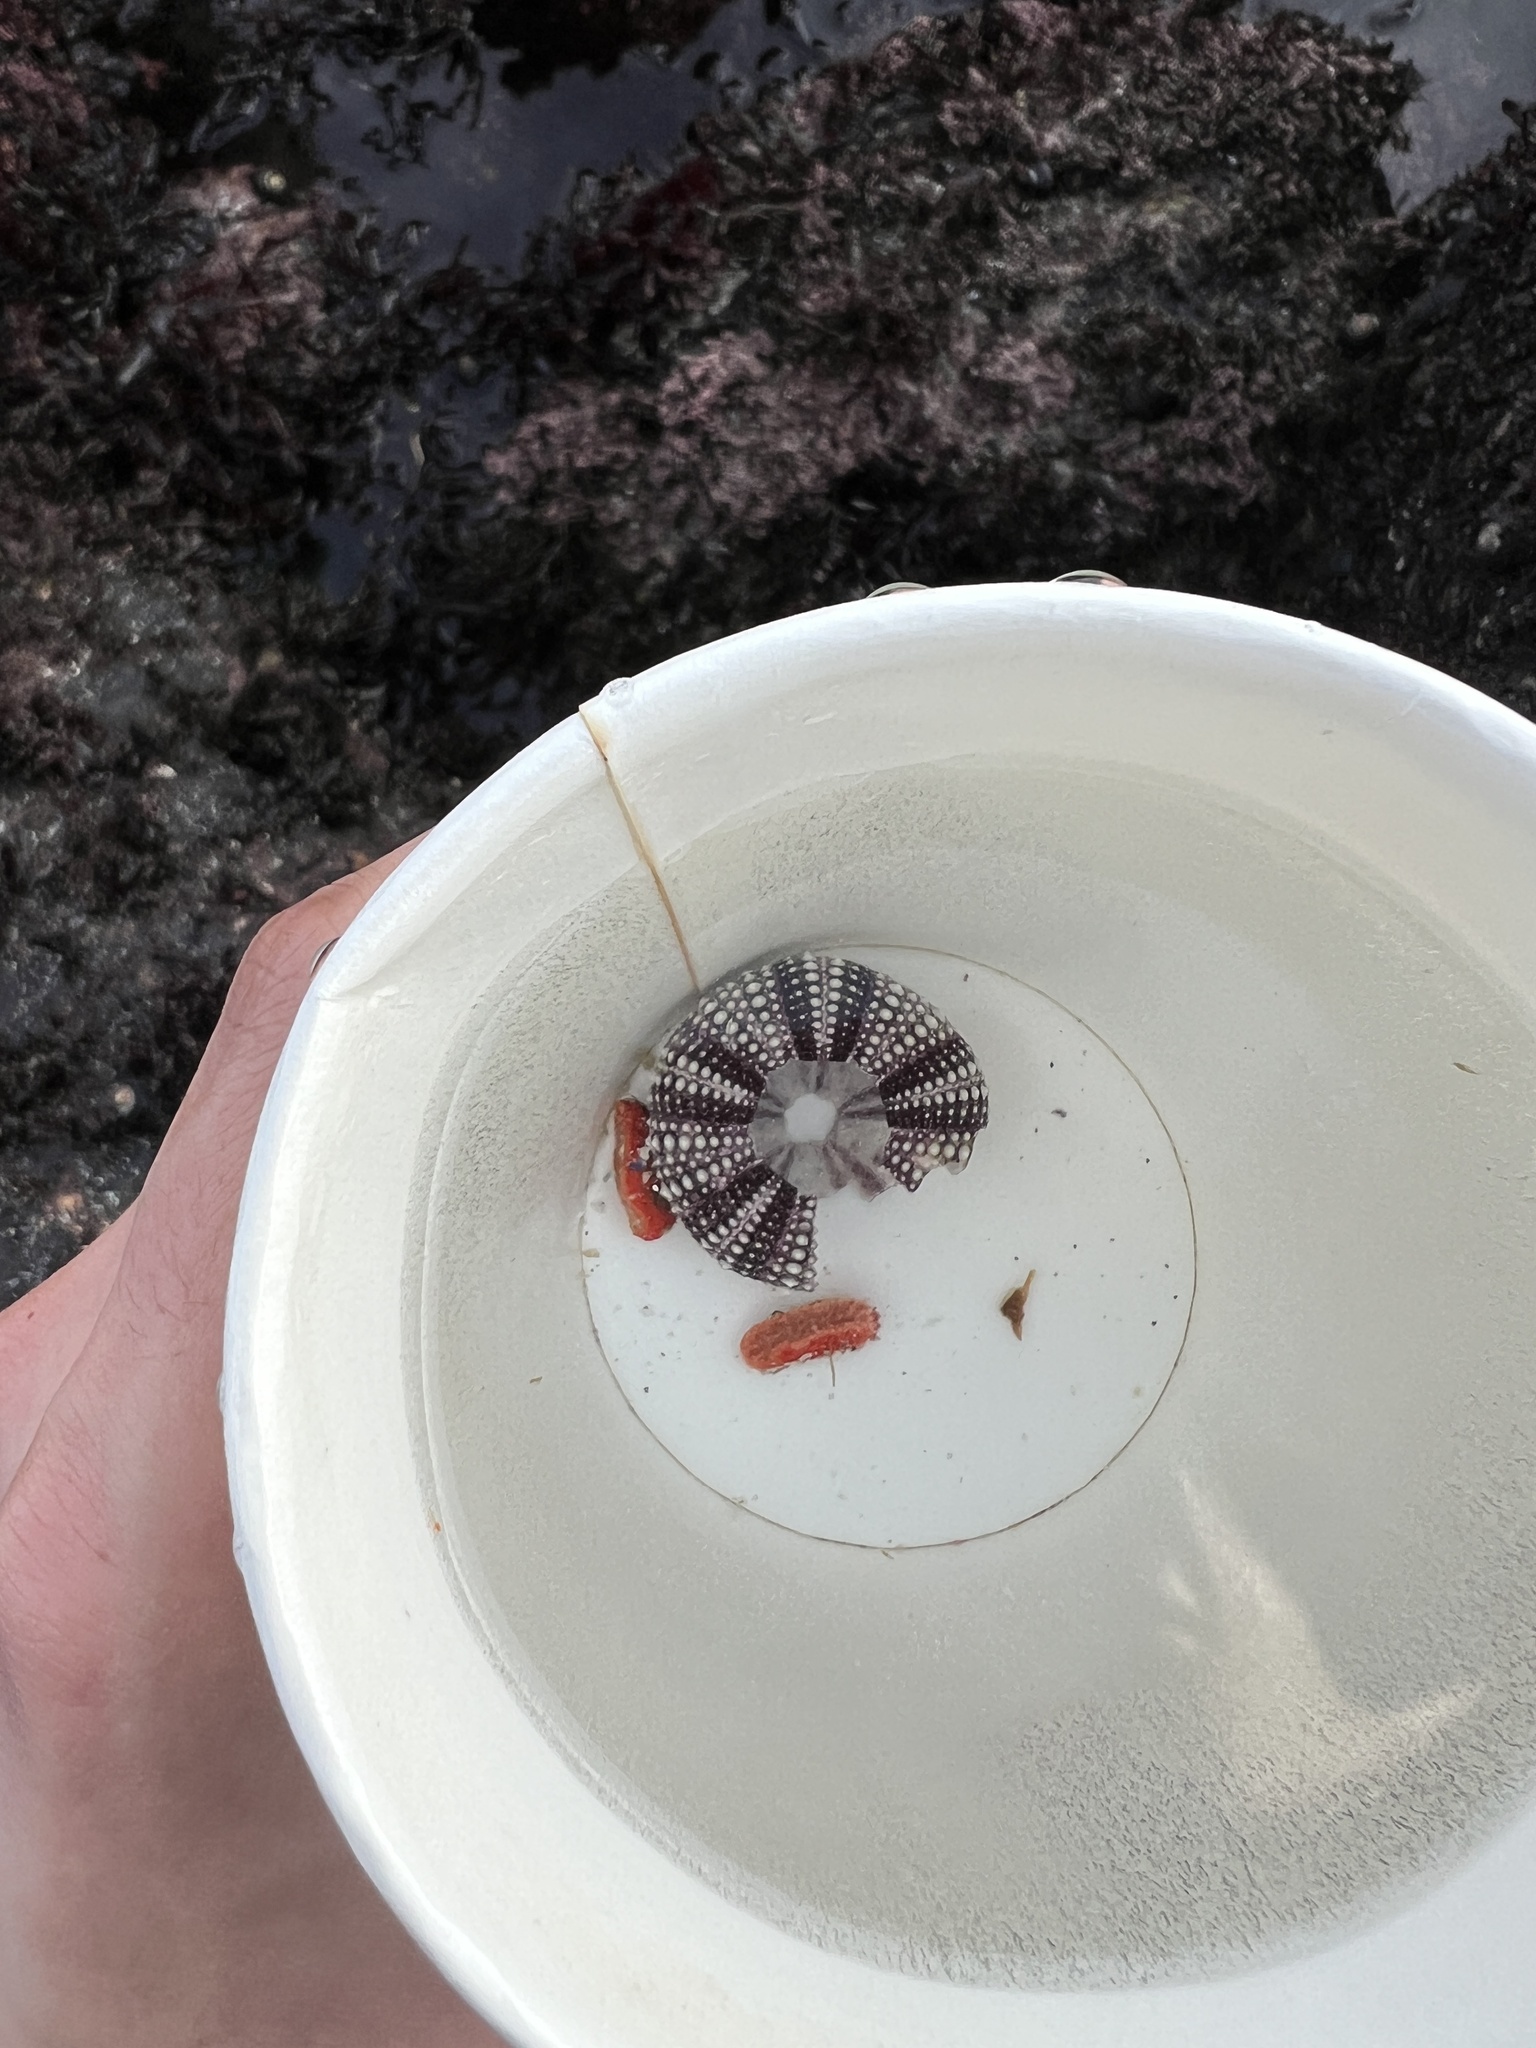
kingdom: Animalia
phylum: Echinodermata
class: Echinoidea
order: Camarodonta
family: Strongylocentrotidae
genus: Strongylocentrotus
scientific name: Strongylocentrotus purpuratus
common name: Purple sea urchin
